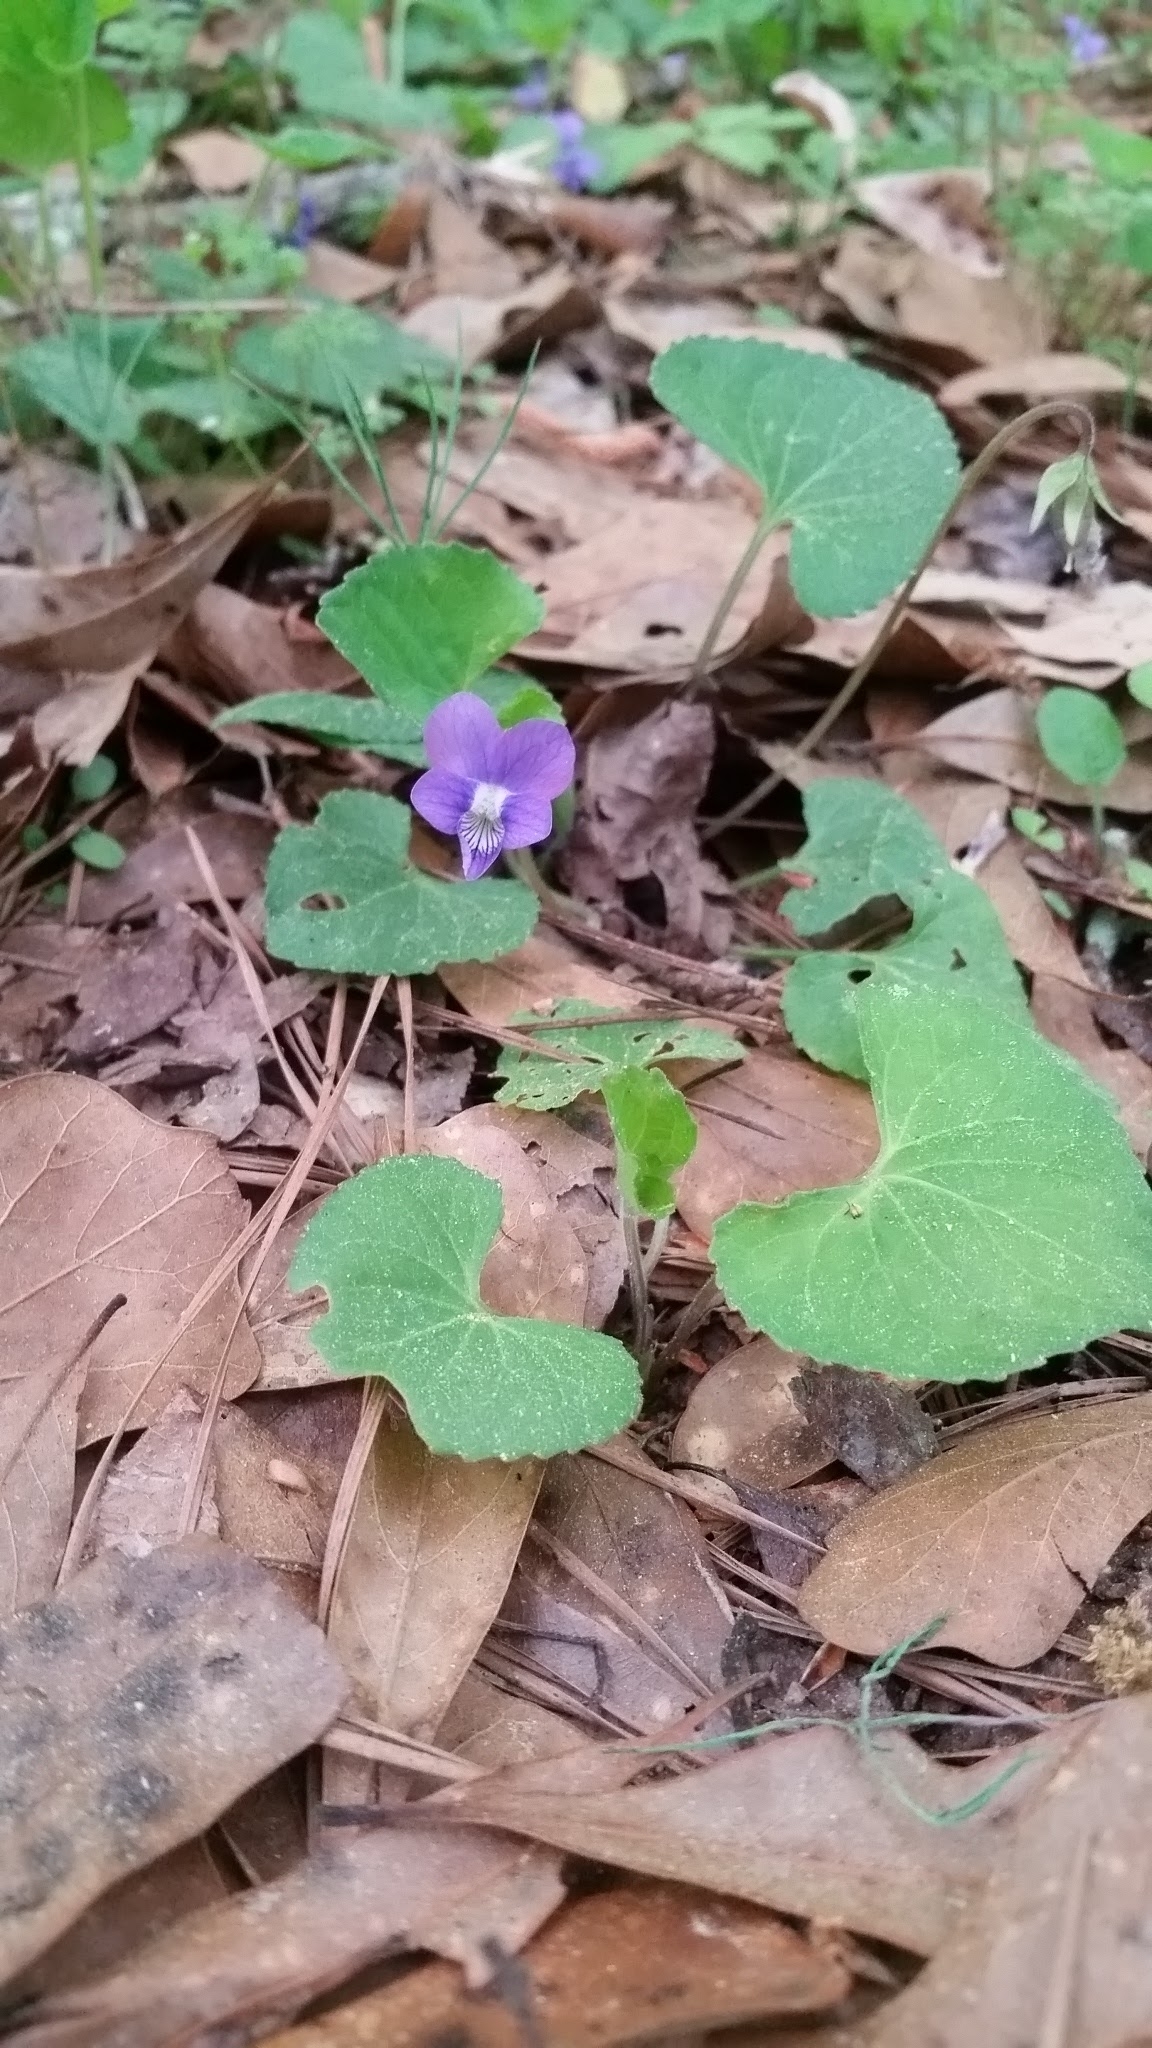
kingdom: Plantae
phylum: Tracheophyta
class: Magnoliopsida
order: Malpighiales
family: Violaceae
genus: Viola
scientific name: Viola palmata
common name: Early blue violet
